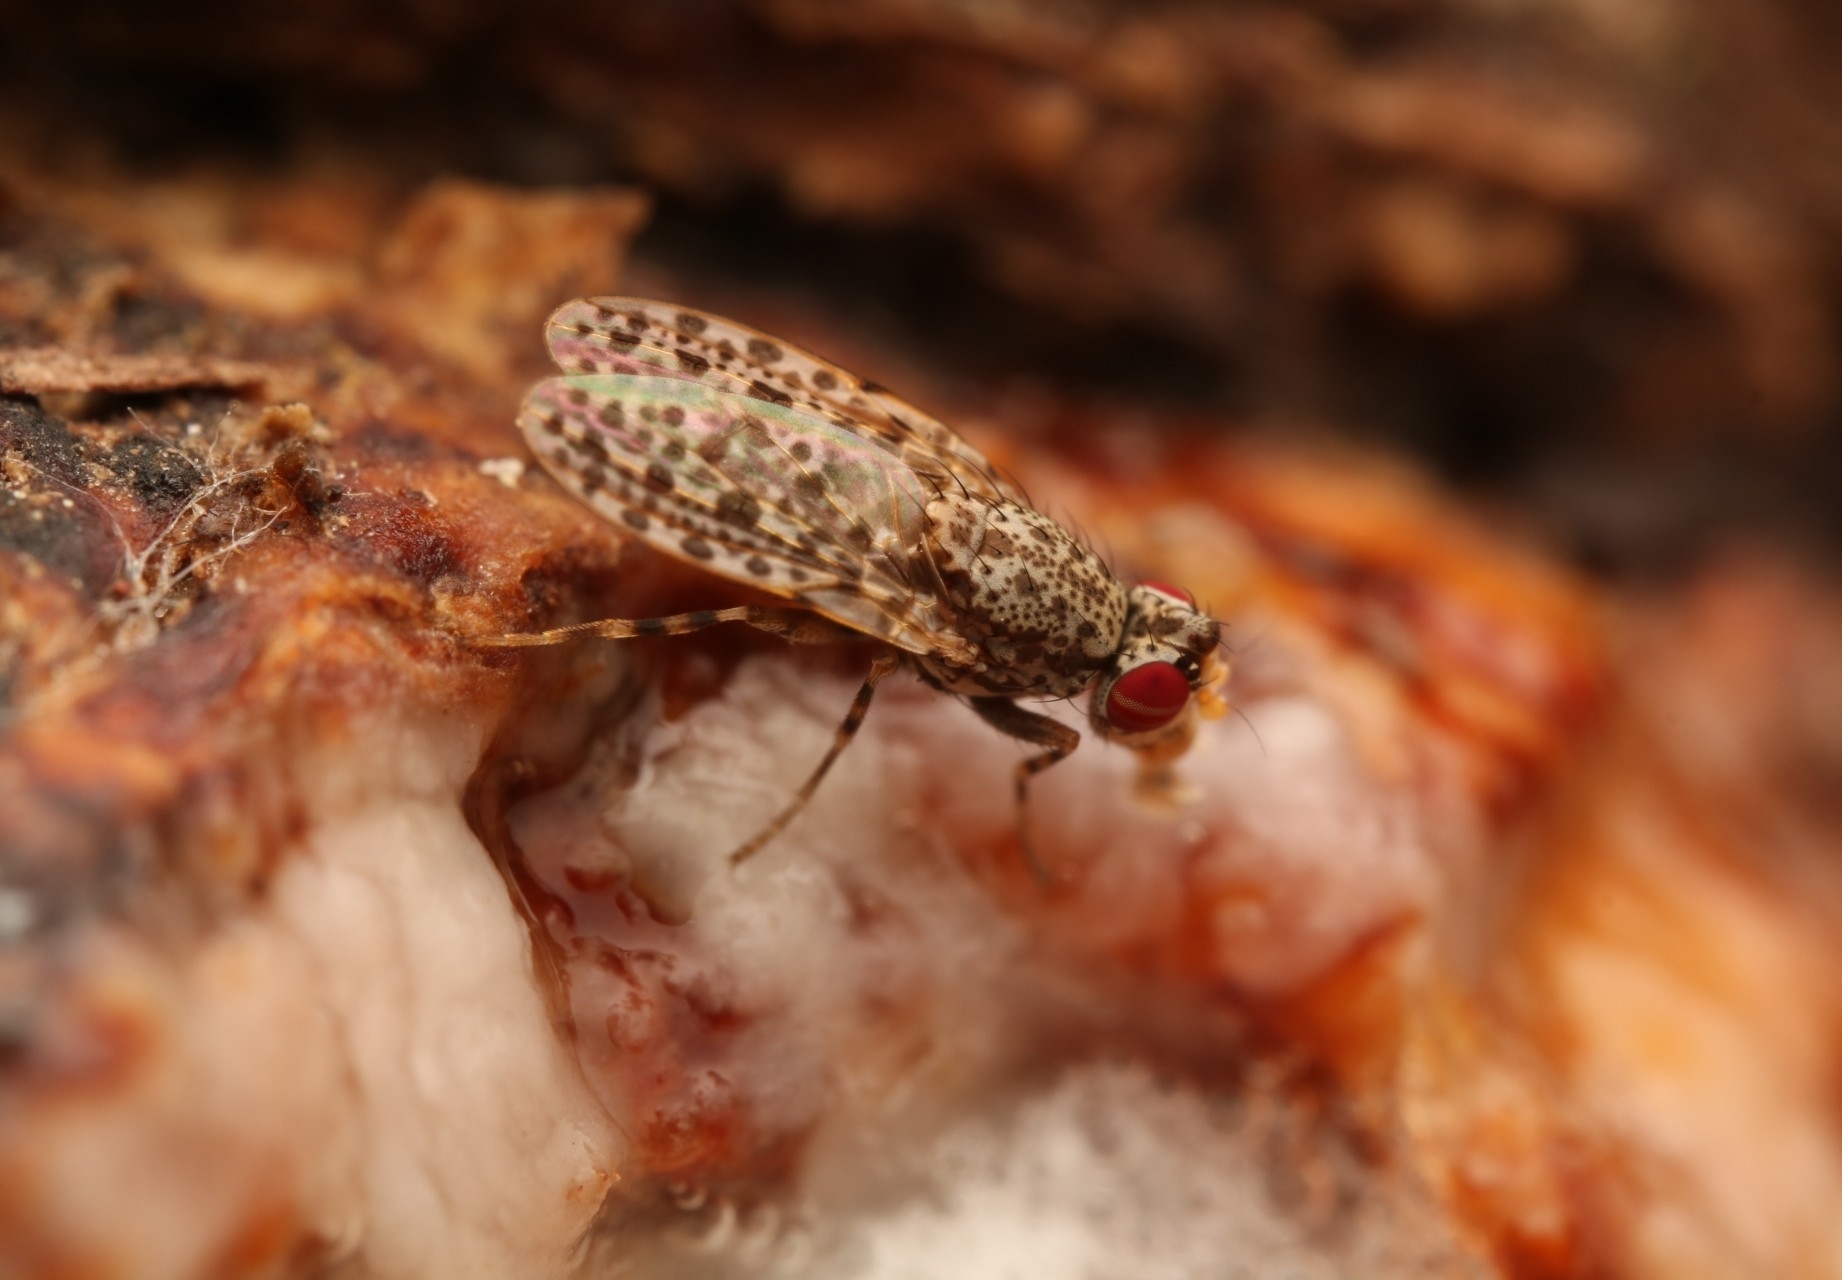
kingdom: Animalia
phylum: Arthropoda
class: Insecta
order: Diptera
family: Odiniidae
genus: Traginops
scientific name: Traginops irroratus
